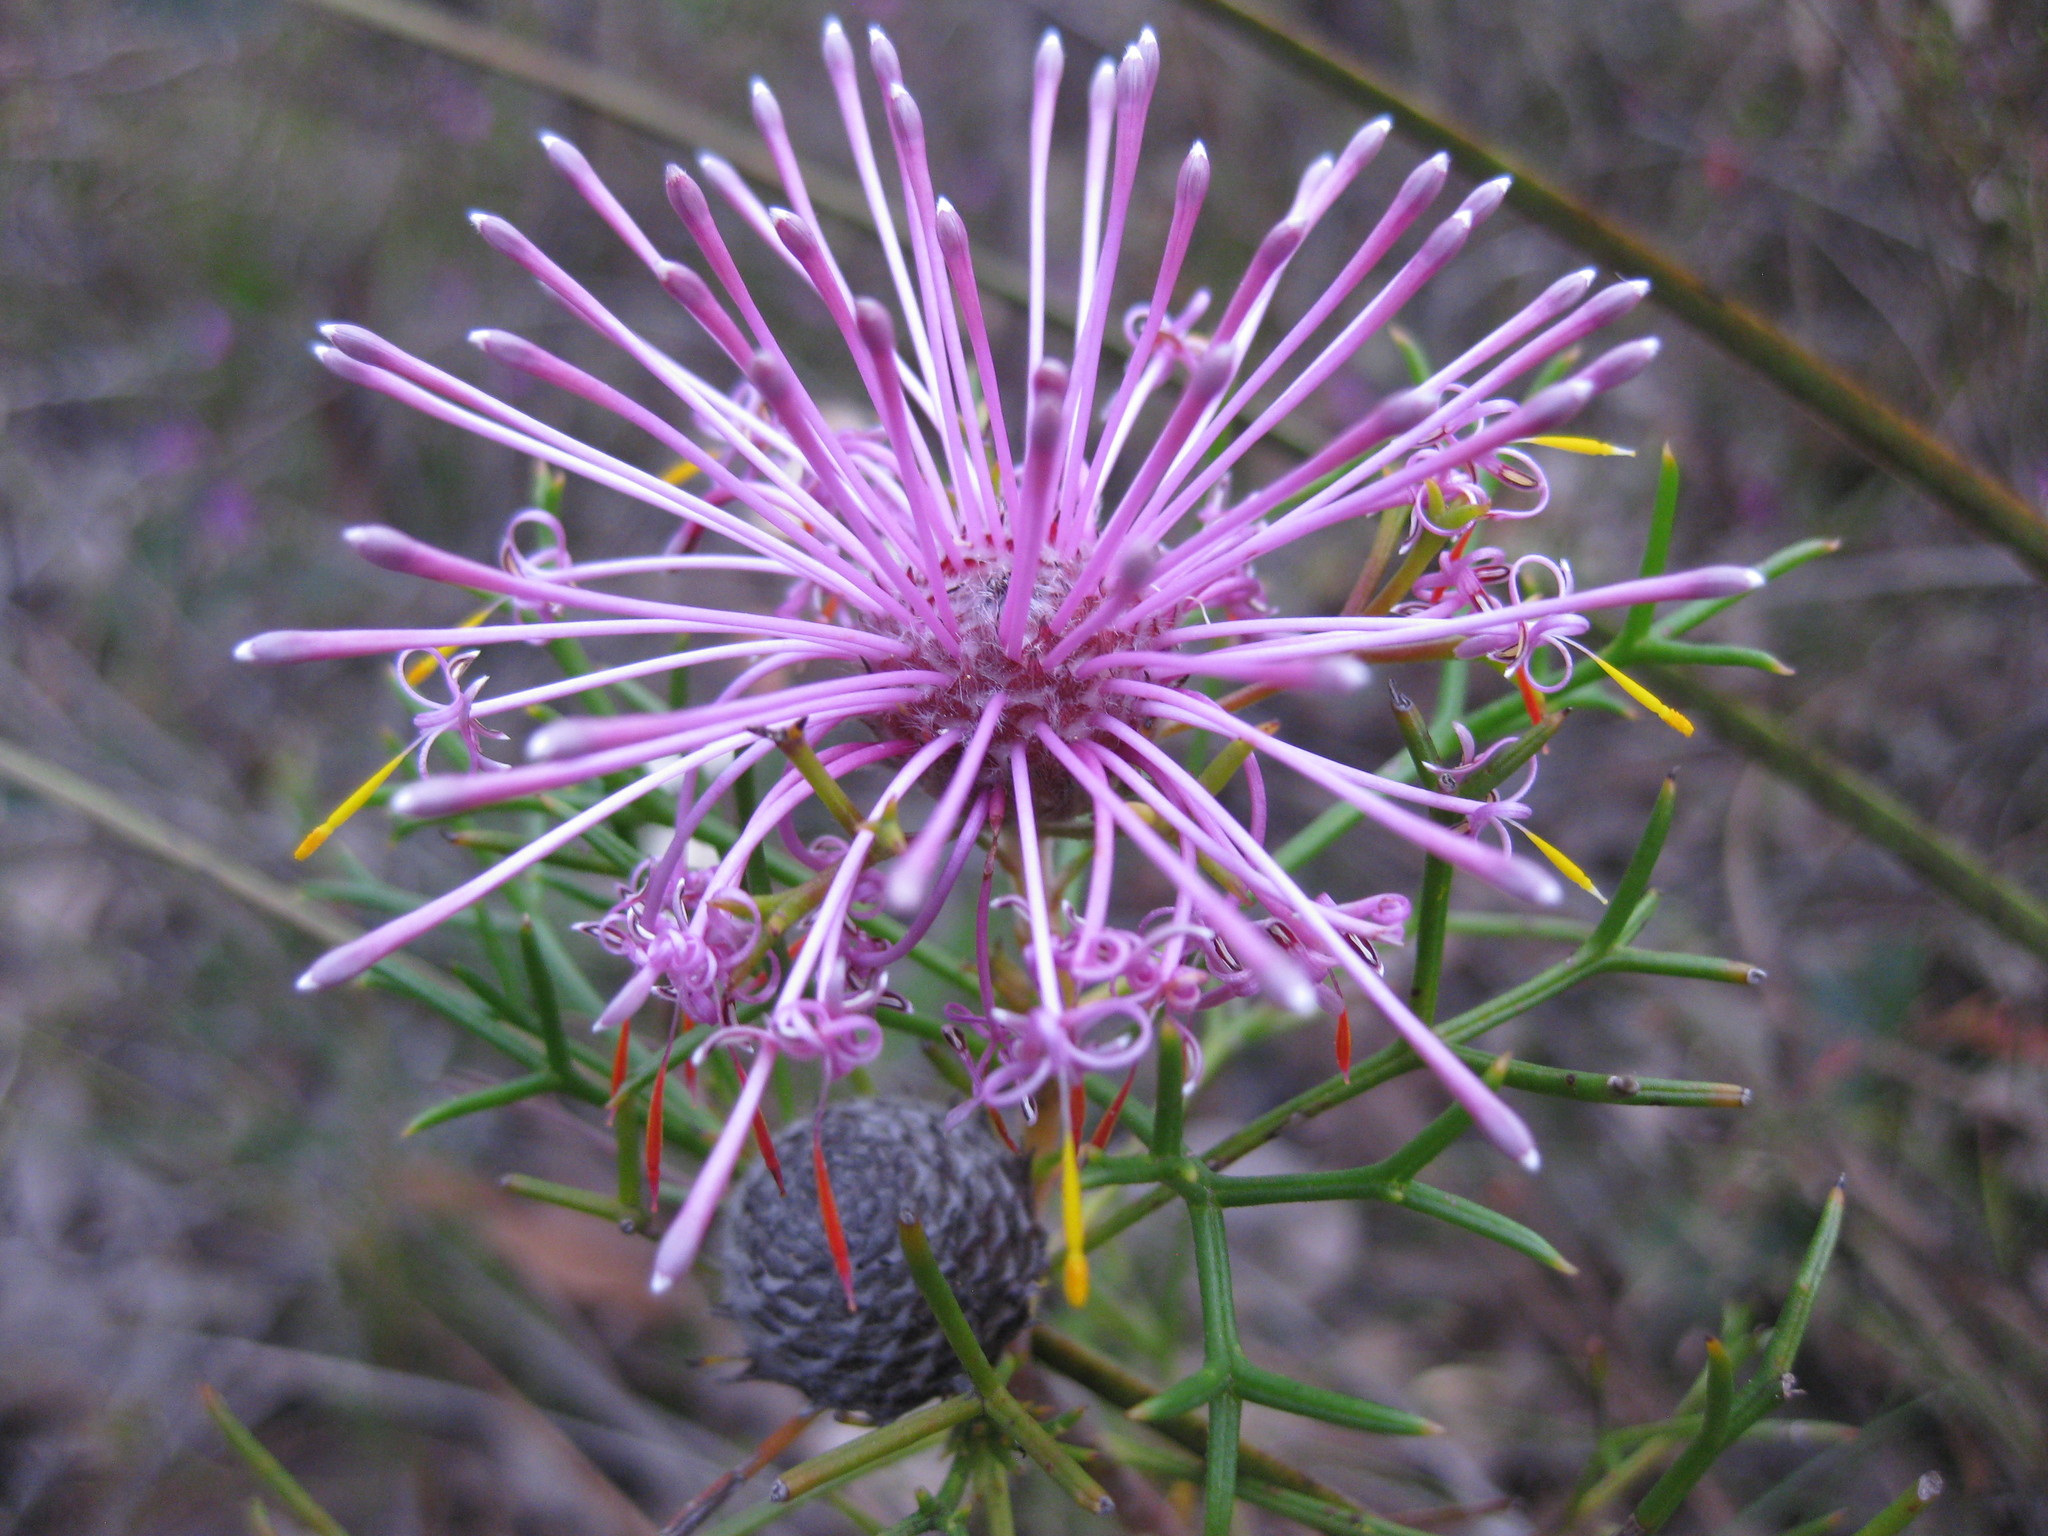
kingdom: Plantae
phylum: Tracheophyta
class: Magnoliopsida
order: Proteales
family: Proteaceae
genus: Isopogon
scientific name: Isopogon formosus
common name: Rose-coneflower
